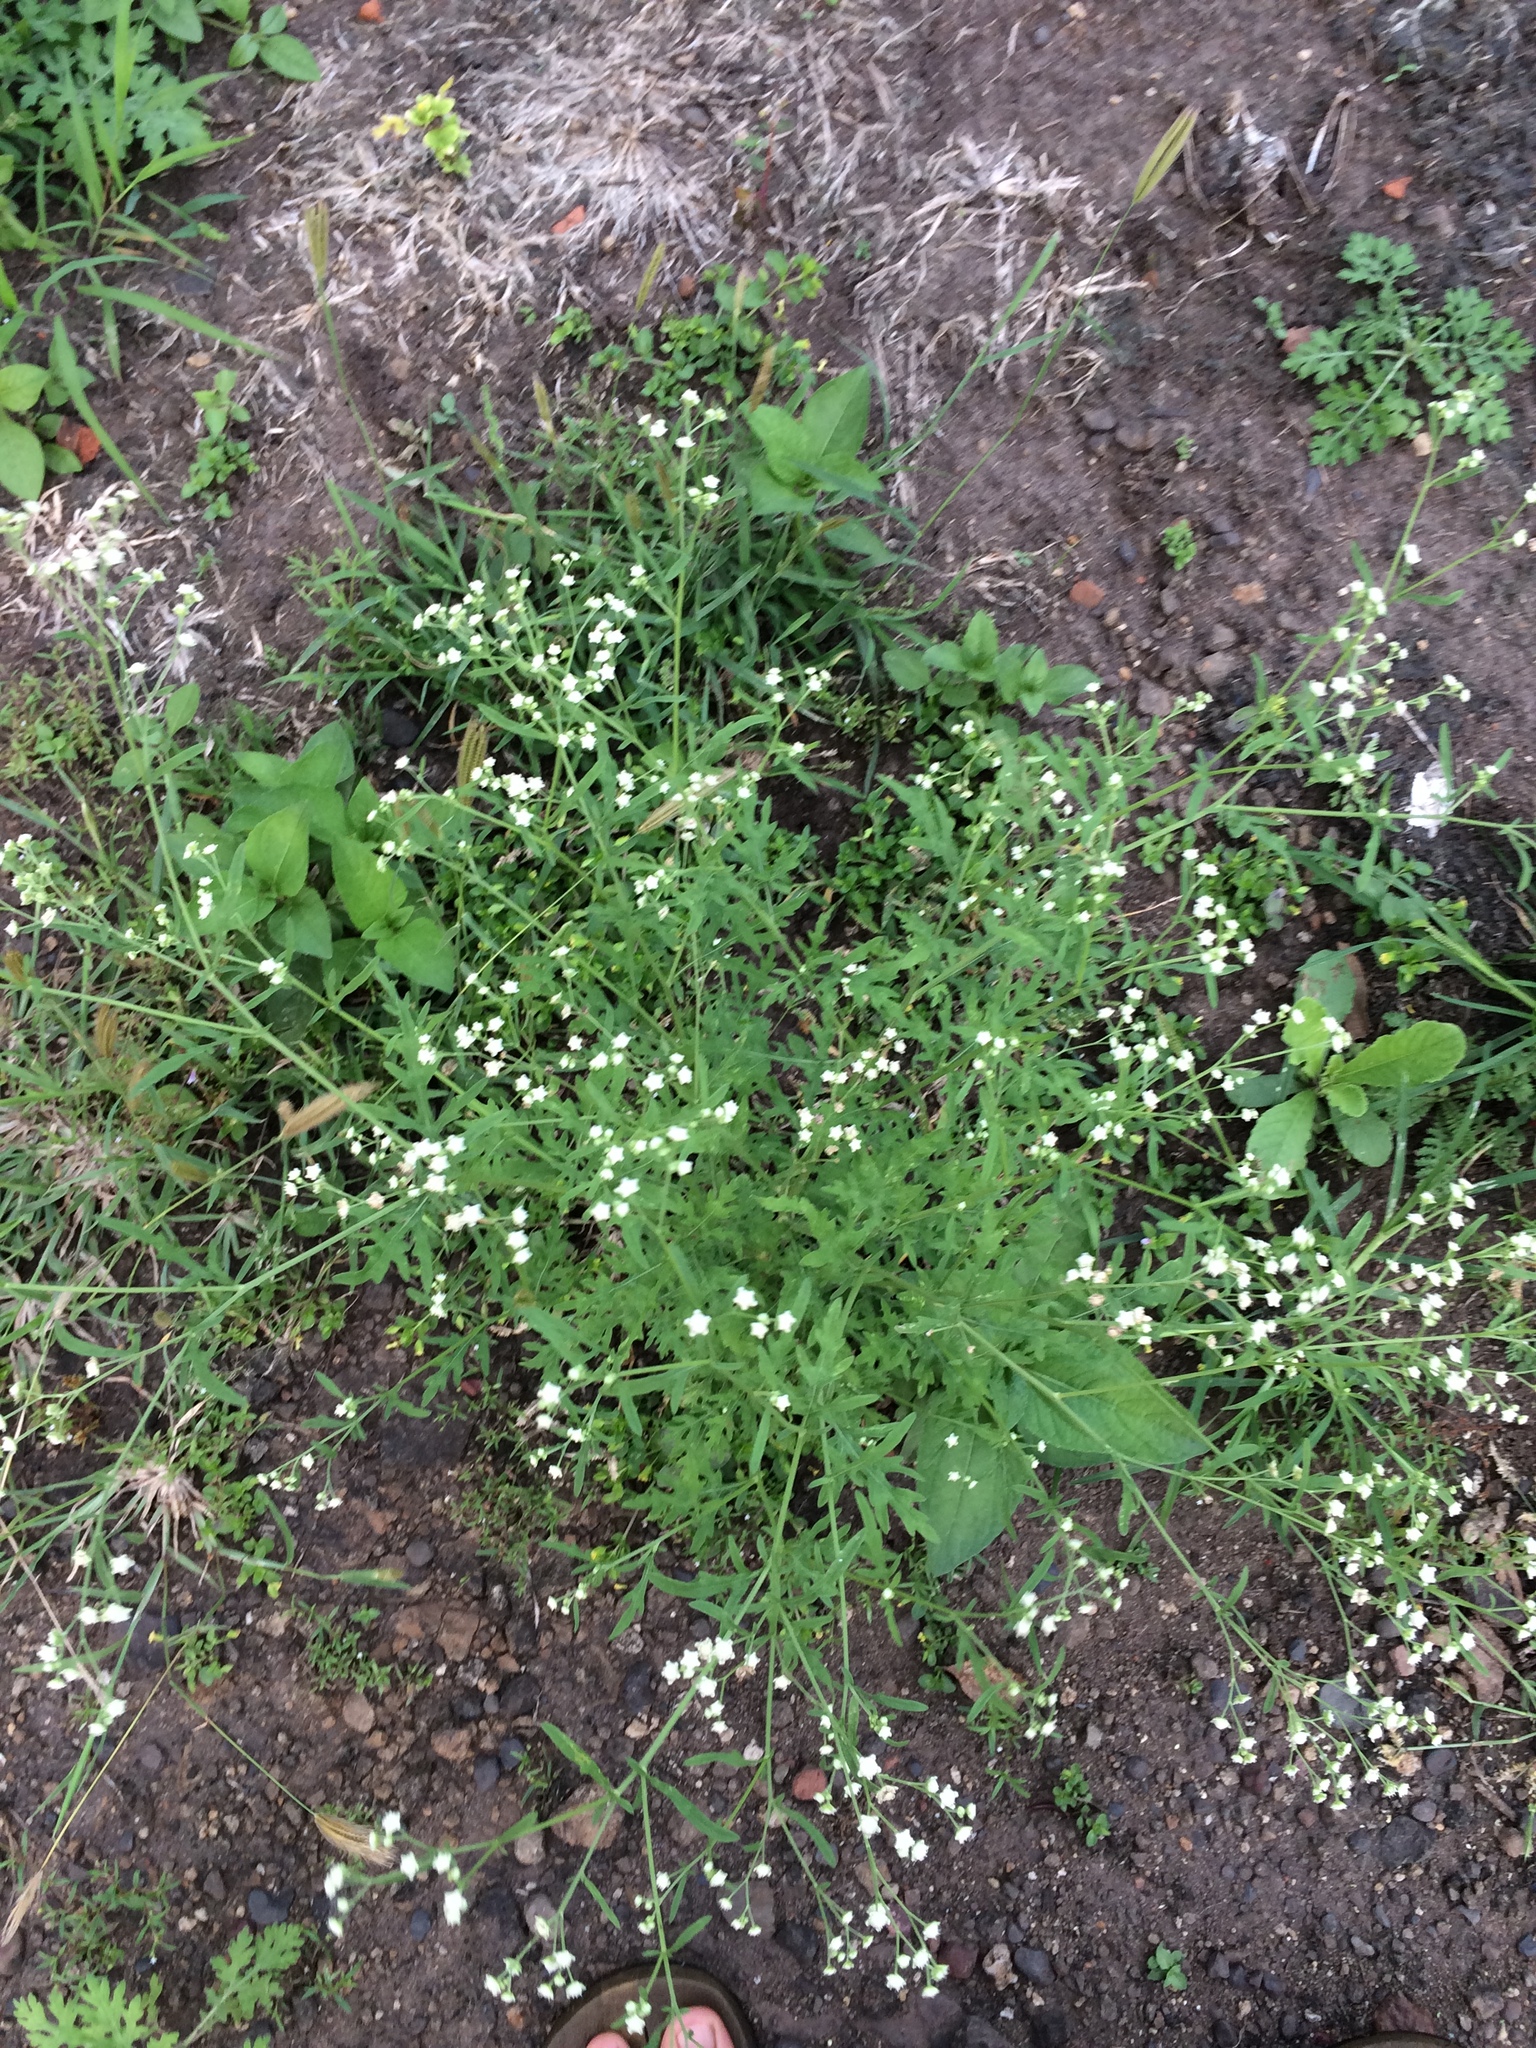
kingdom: Plantae
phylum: Tracheophyta
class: Magnoliopsida
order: Asterales
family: Asteraceae
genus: Parthenium
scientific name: Parthenium hysterophorus
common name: Santa maria feverfew
